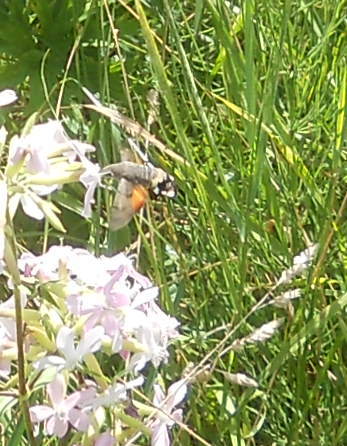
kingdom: Animalia
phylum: Arthropoda
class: Insecta
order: Lepidoptera
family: Sphingidae
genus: Macroglossum
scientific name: Macroglossum stellatarum
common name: Humming-bird hawk-moth
